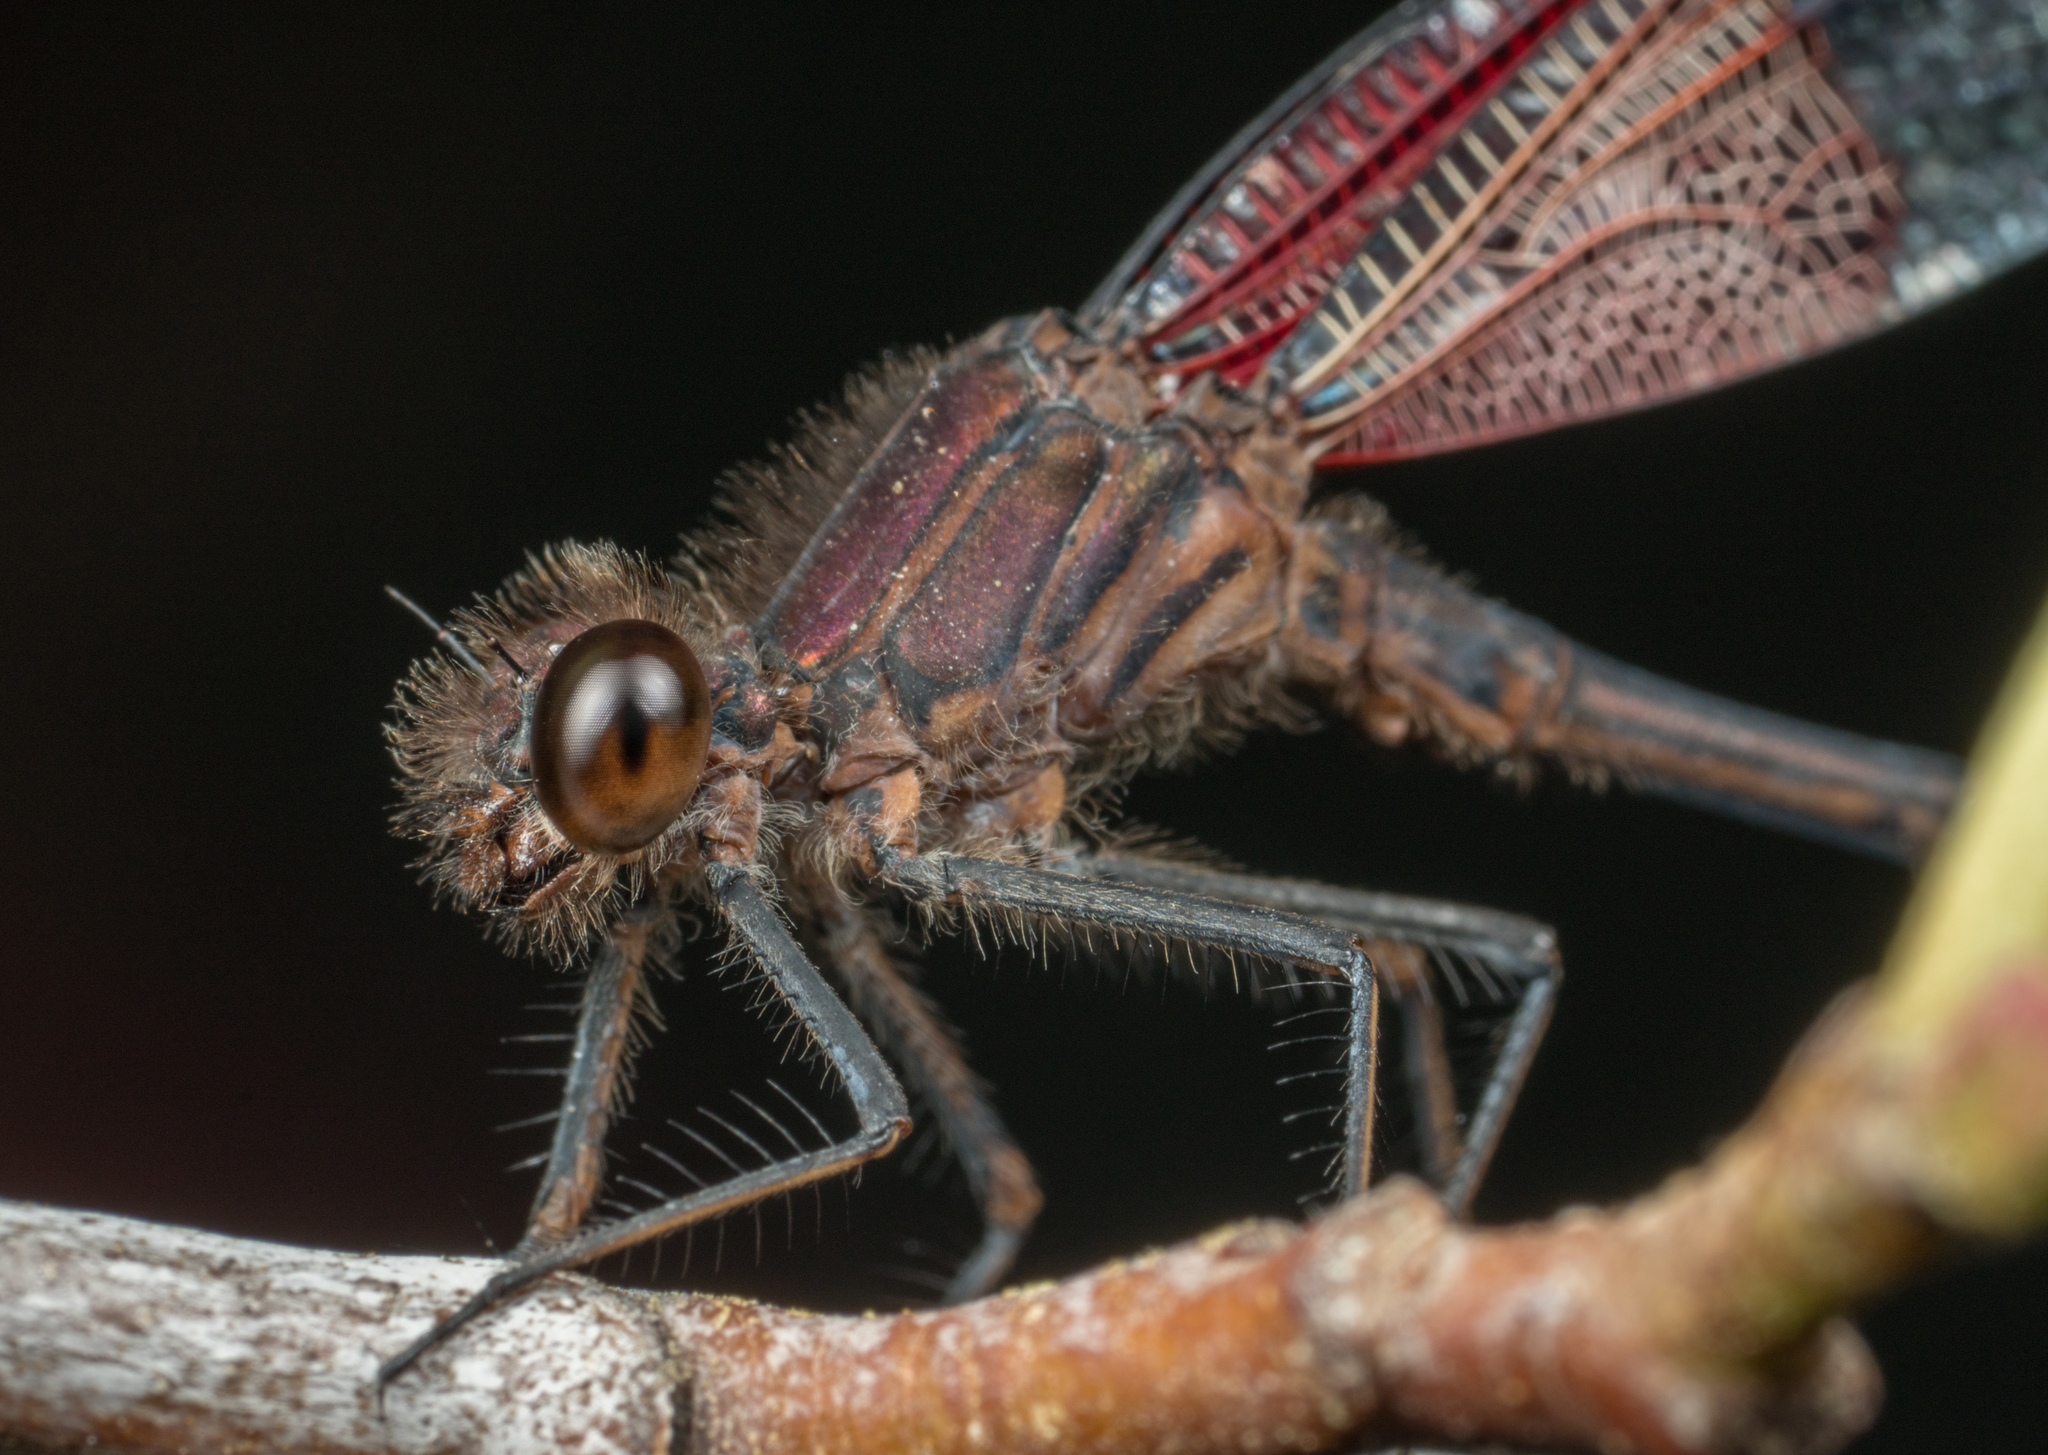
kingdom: Animalia
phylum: Arthropoda
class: Insecta
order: Odonata
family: Calopterygidae
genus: Hetaerina
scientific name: Hetaerina americana
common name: American rubyspot
